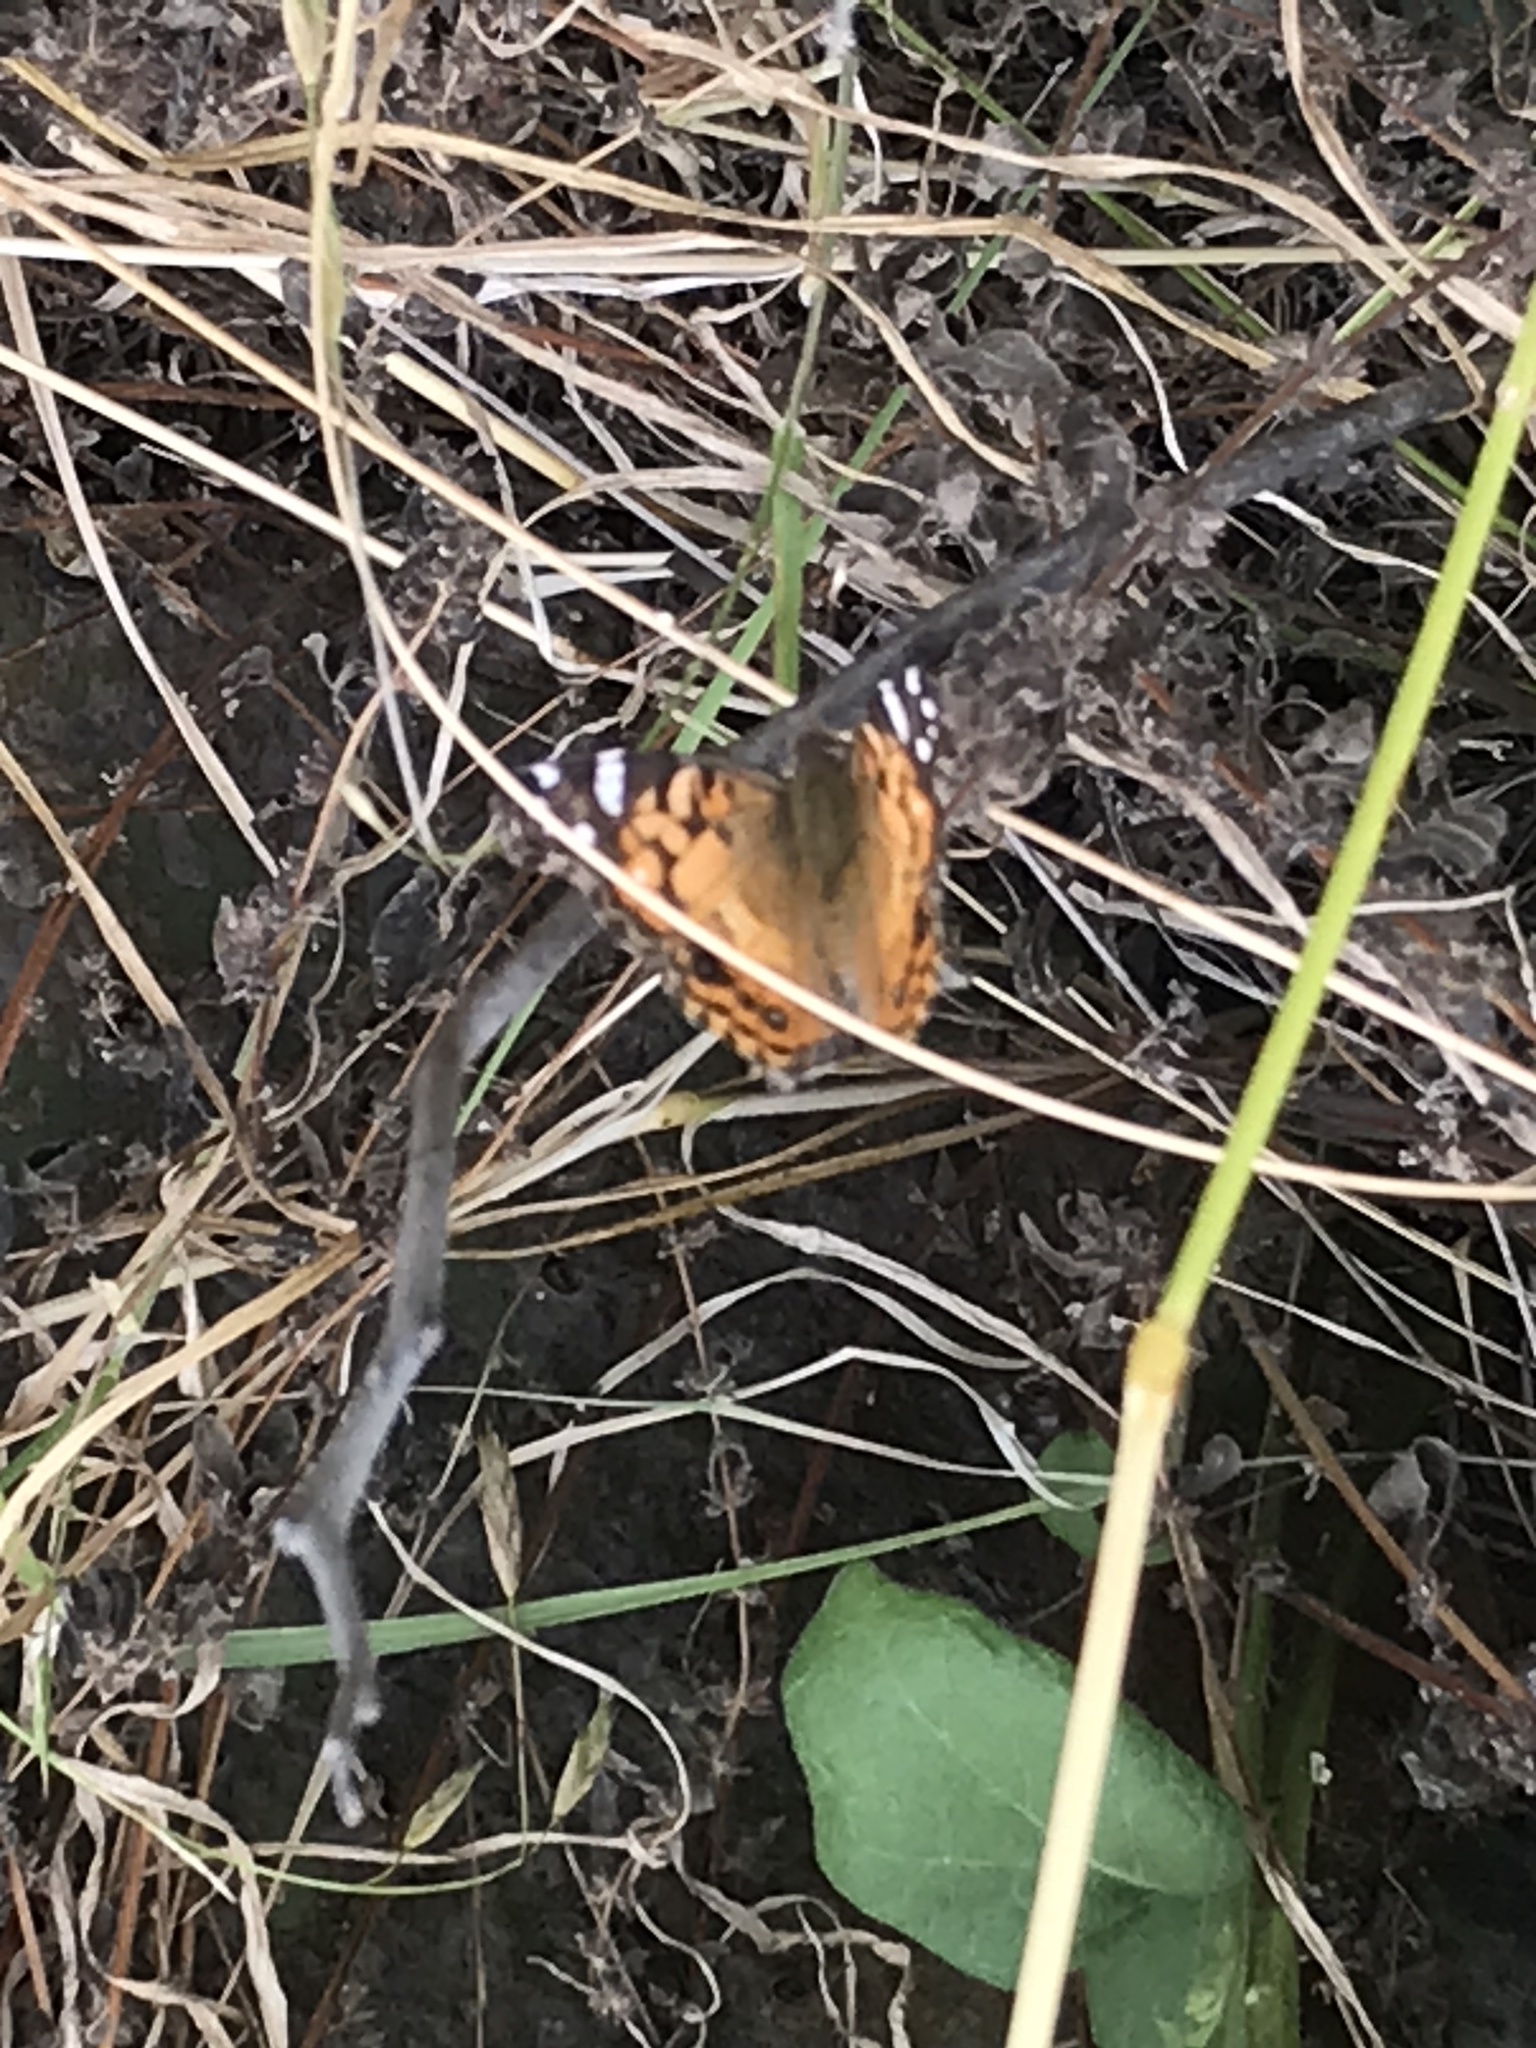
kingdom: Animalia
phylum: Arthropoda
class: Insecta
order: Lepidoptera
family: Nymphalidae
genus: Vanessa
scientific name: Vanessa virginiensis
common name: American lady
